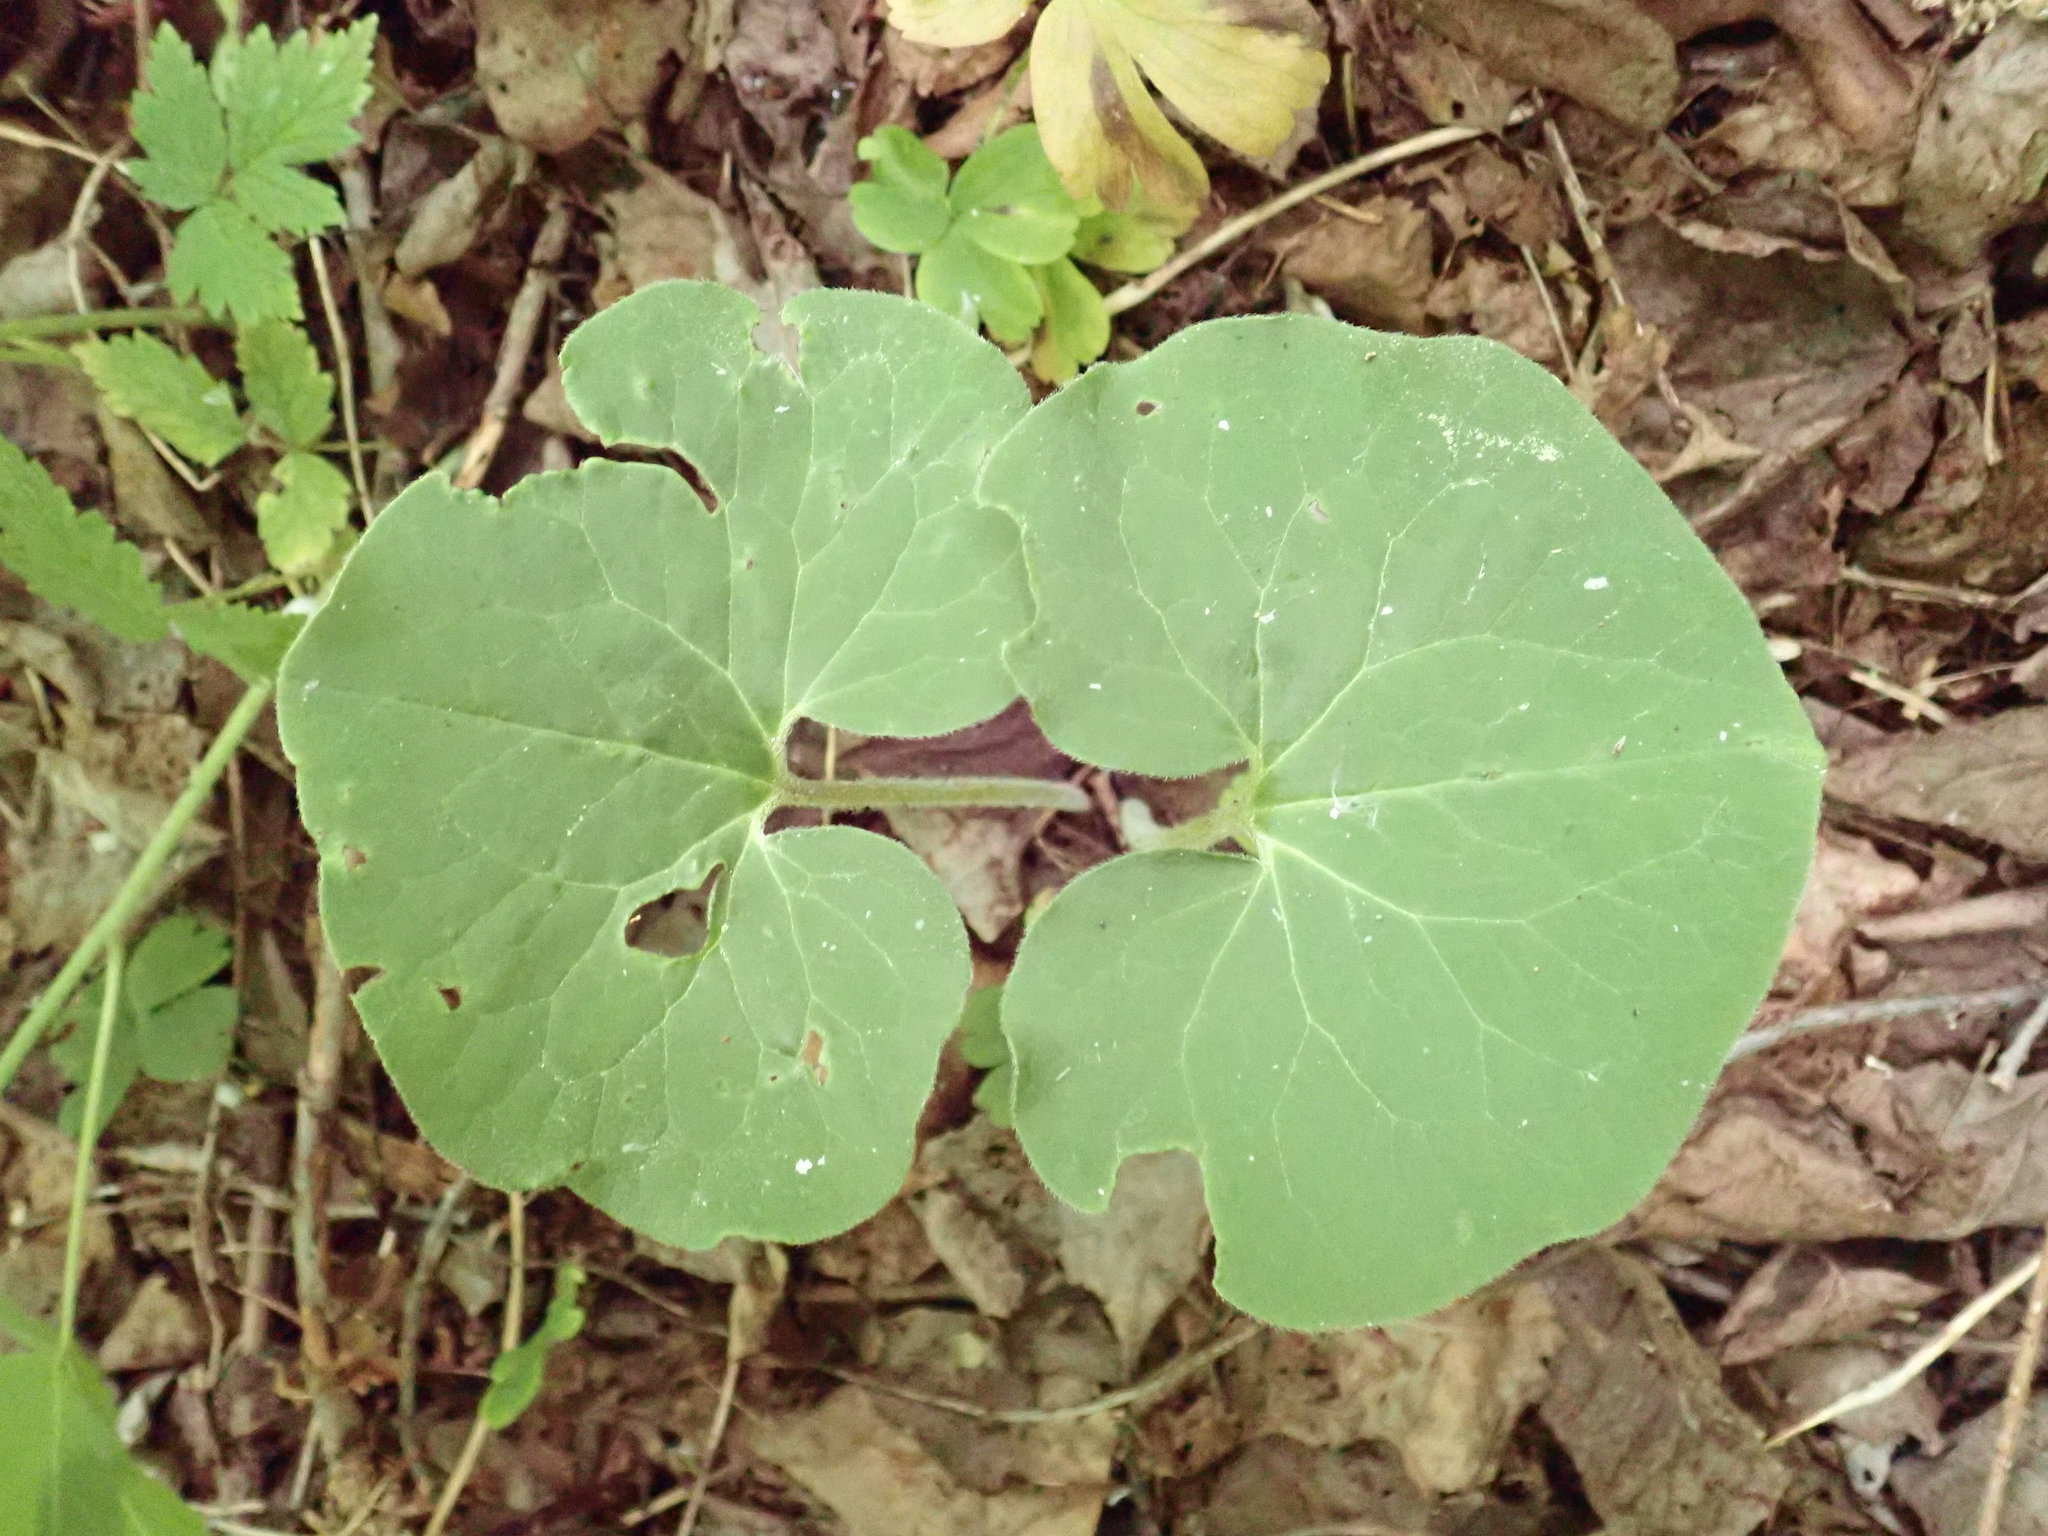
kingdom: Plantae
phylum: Tracheophyta
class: Magnoliopsida
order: Piperales
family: Aristolochiaceae
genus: Asarum
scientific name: Asarum canadense
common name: Wild ginger
